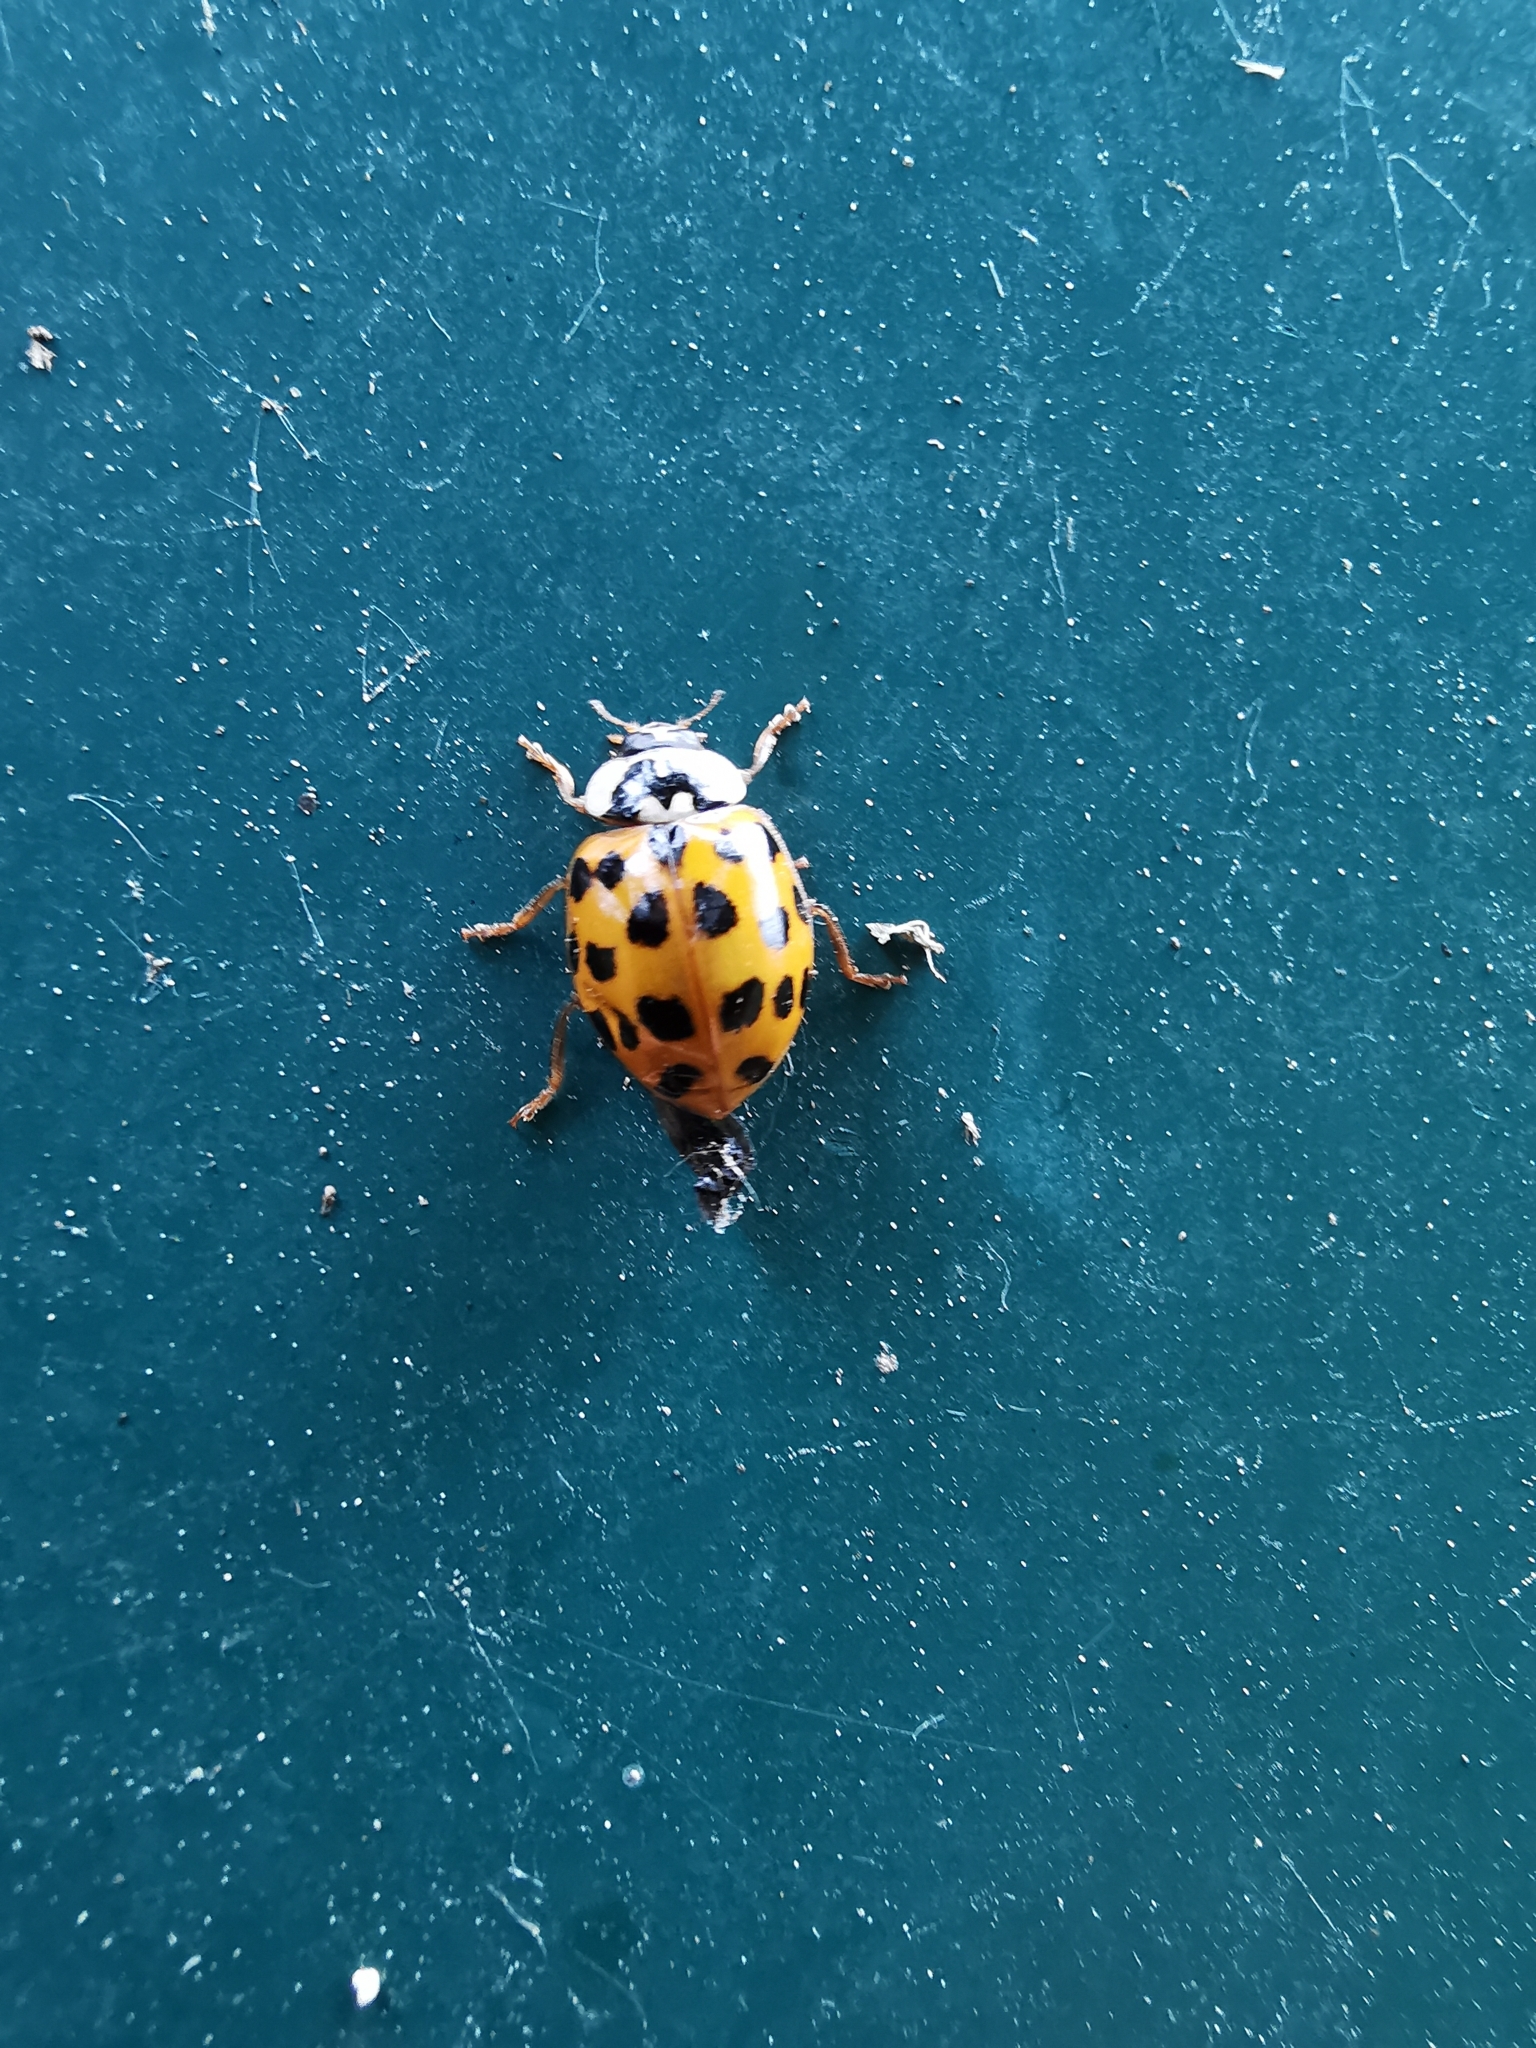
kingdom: Animalia
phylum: Arthropoda
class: Insecta
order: Coleoptera
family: Coccinellidae
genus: Harmonia
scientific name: Harmonia axyridis
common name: Harlequin ladybird
